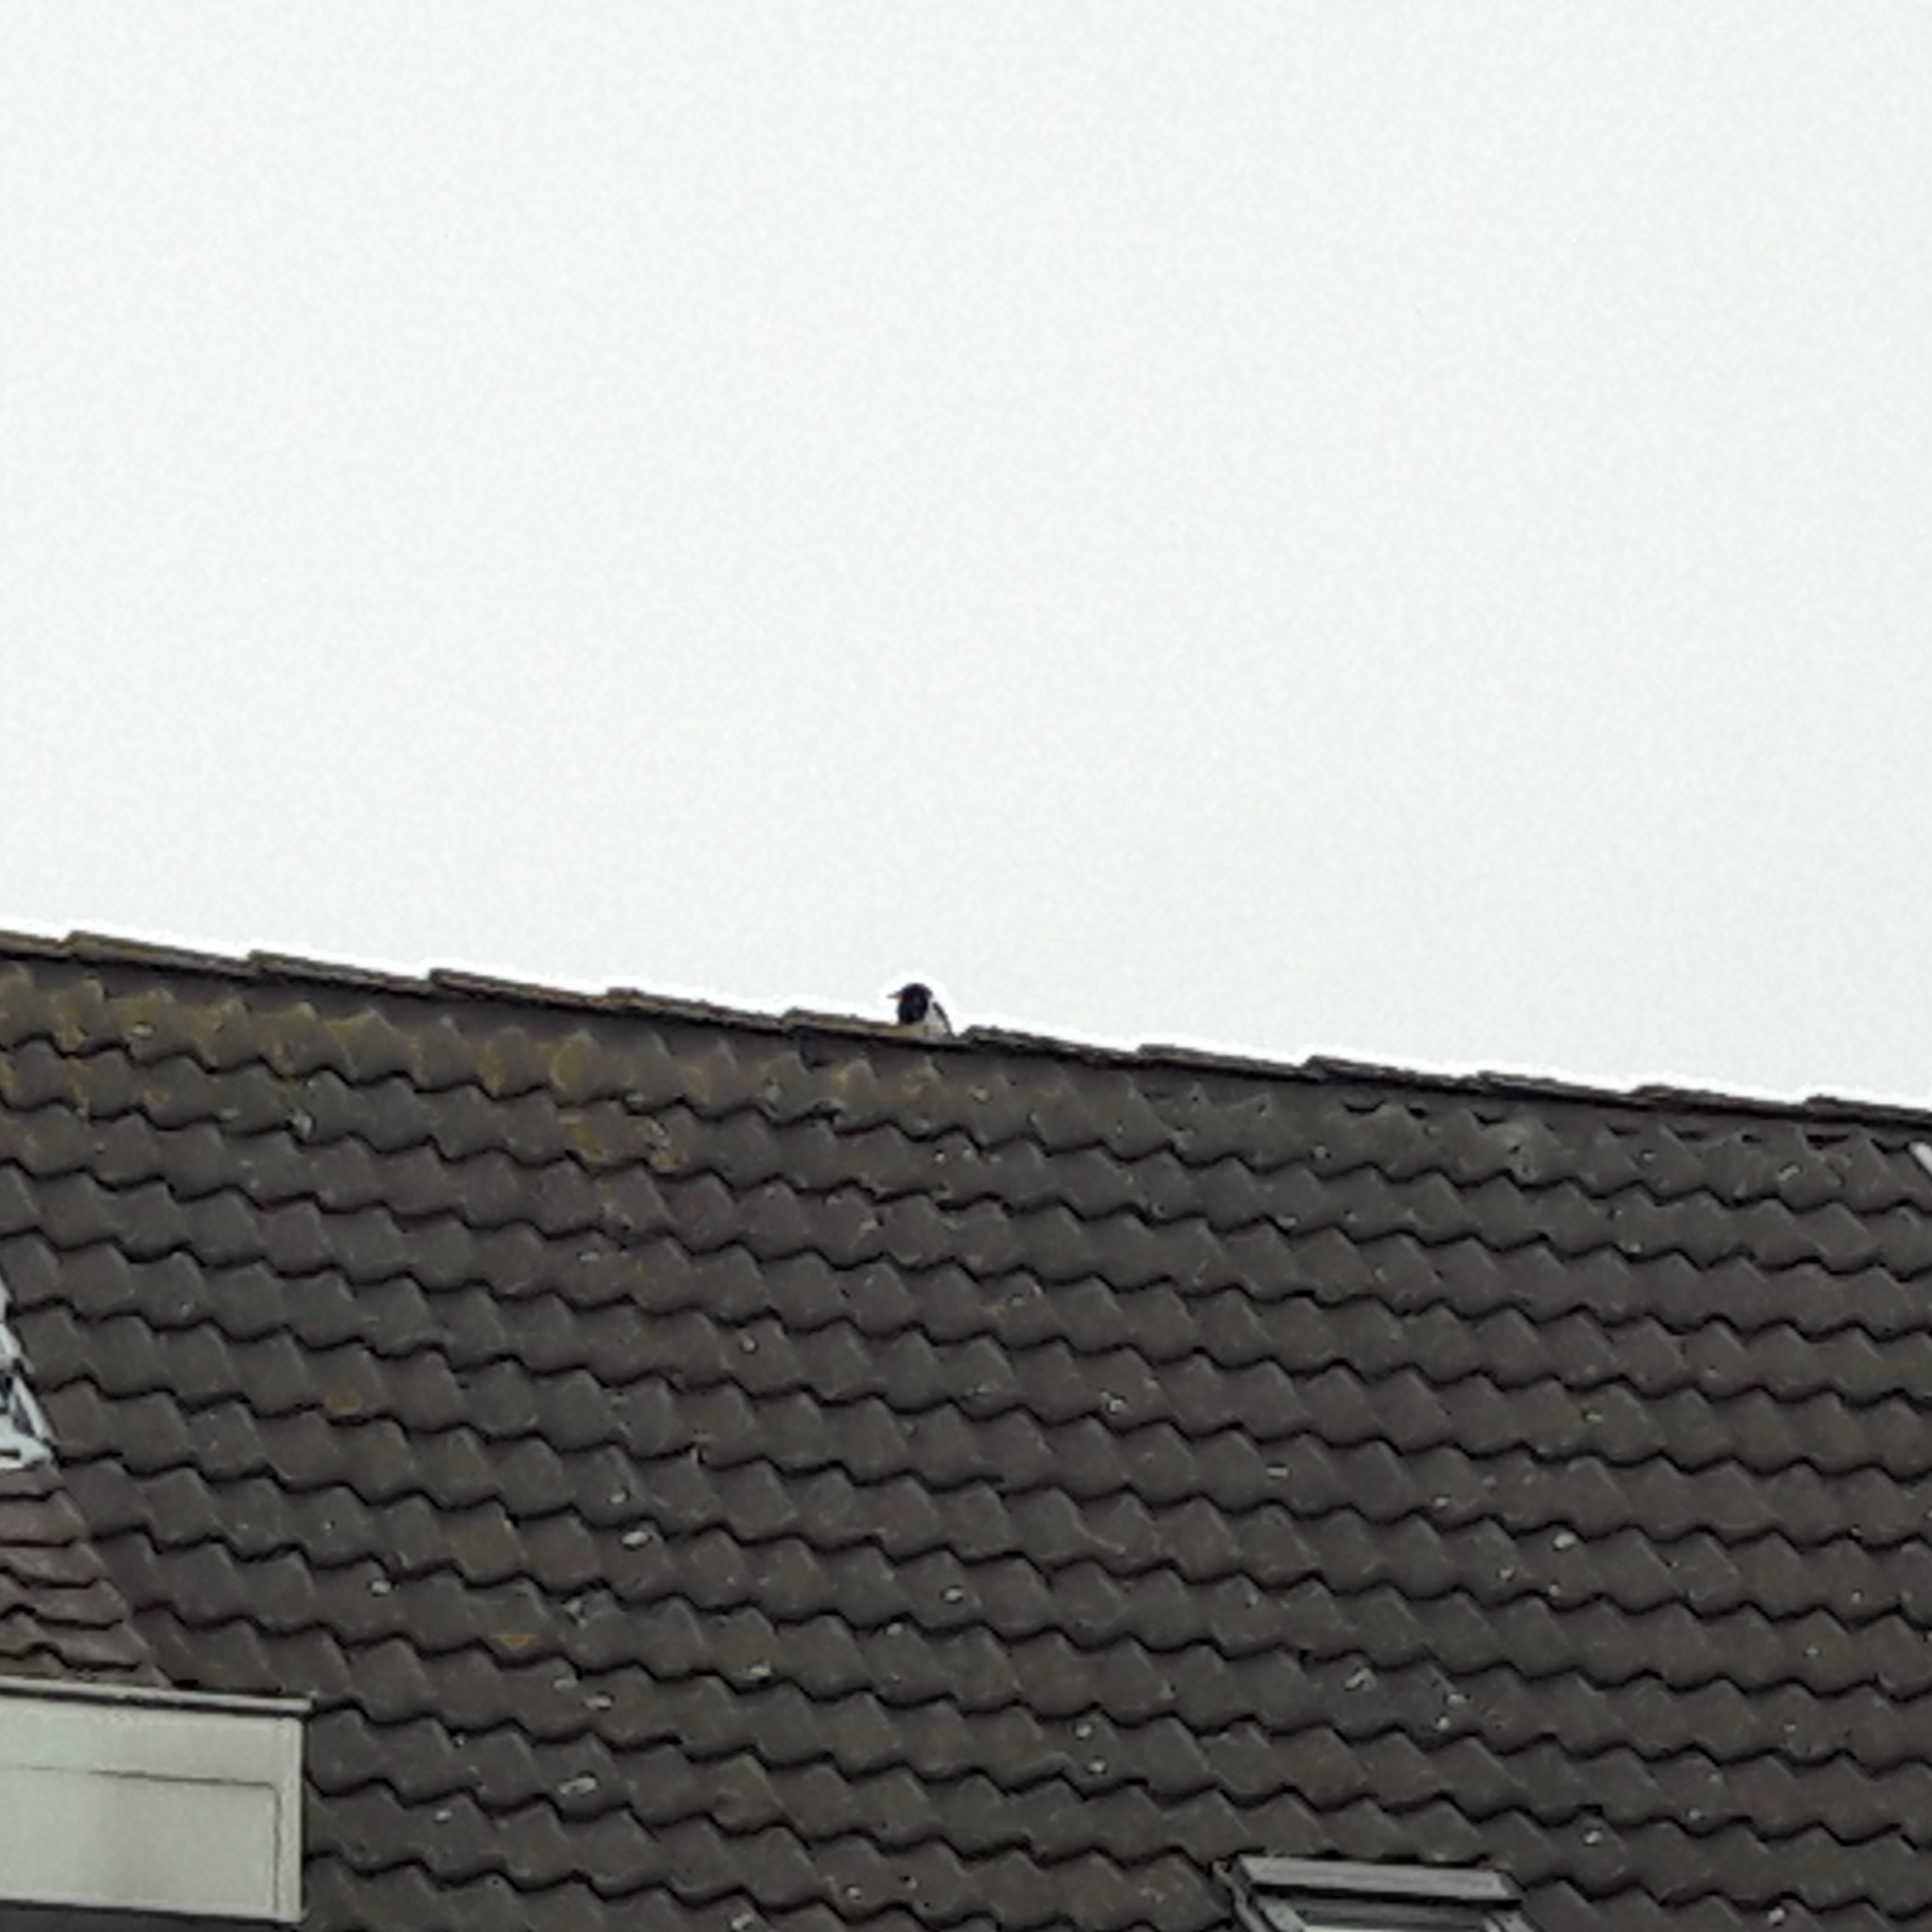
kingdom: Animalia
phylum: Chordata
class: Aves
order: Passeriformes
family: Corvidae
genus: Pica
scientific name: Pica pica
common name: Eurasian magpie
